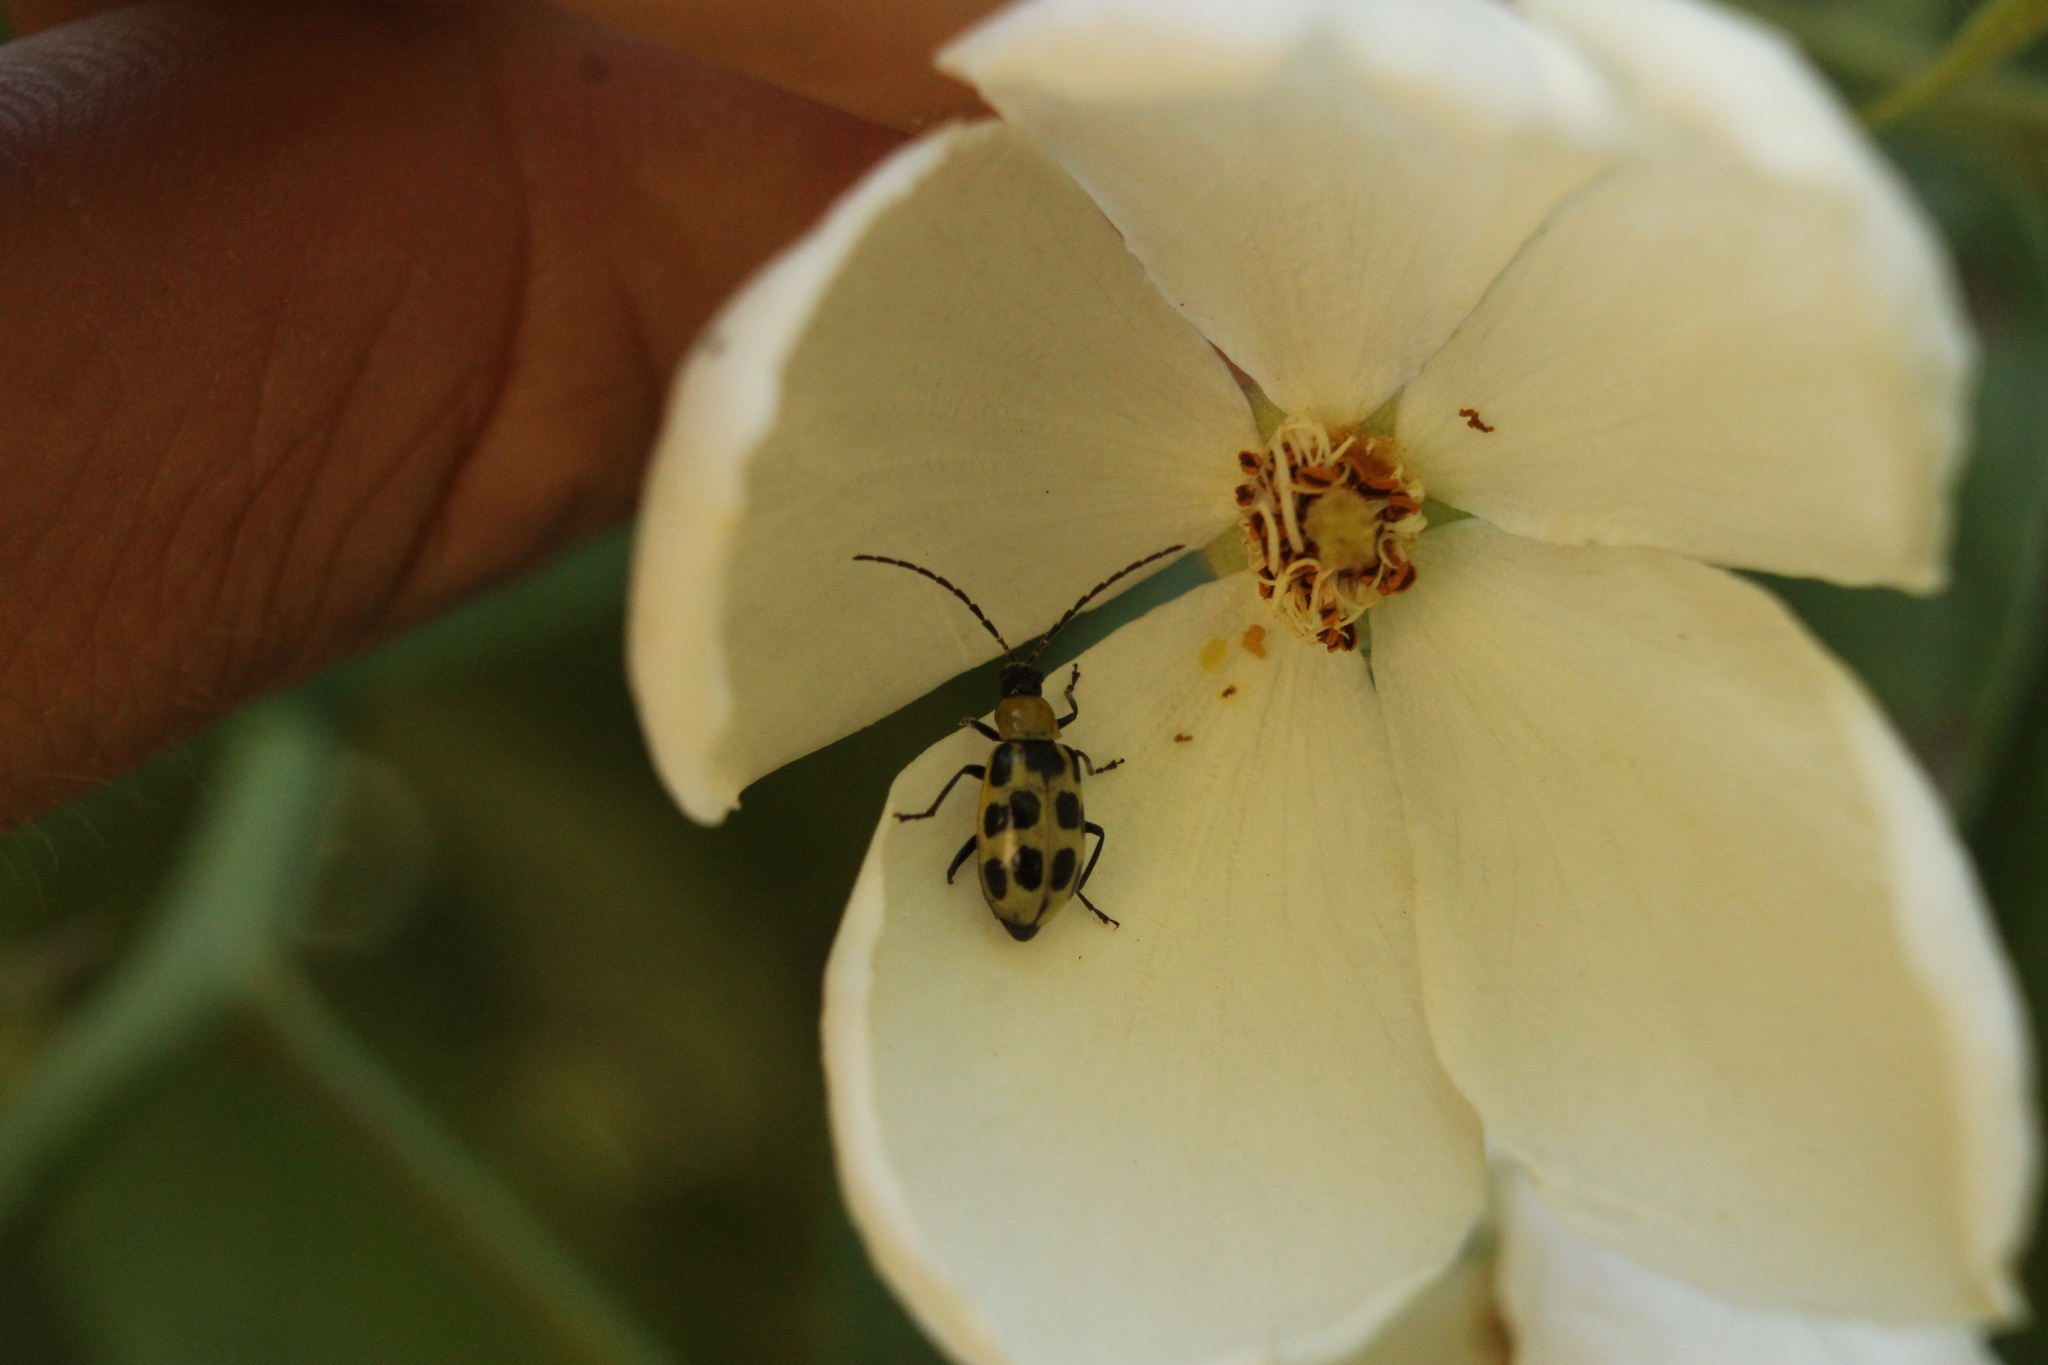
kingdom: Animalia
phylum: Arthropoda
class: Insecta
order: Coleoptera
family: Chrysomelidae
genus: Diabrotica
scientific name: Diabrotica undecimpunctata
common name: Spotted cucumber beetle
